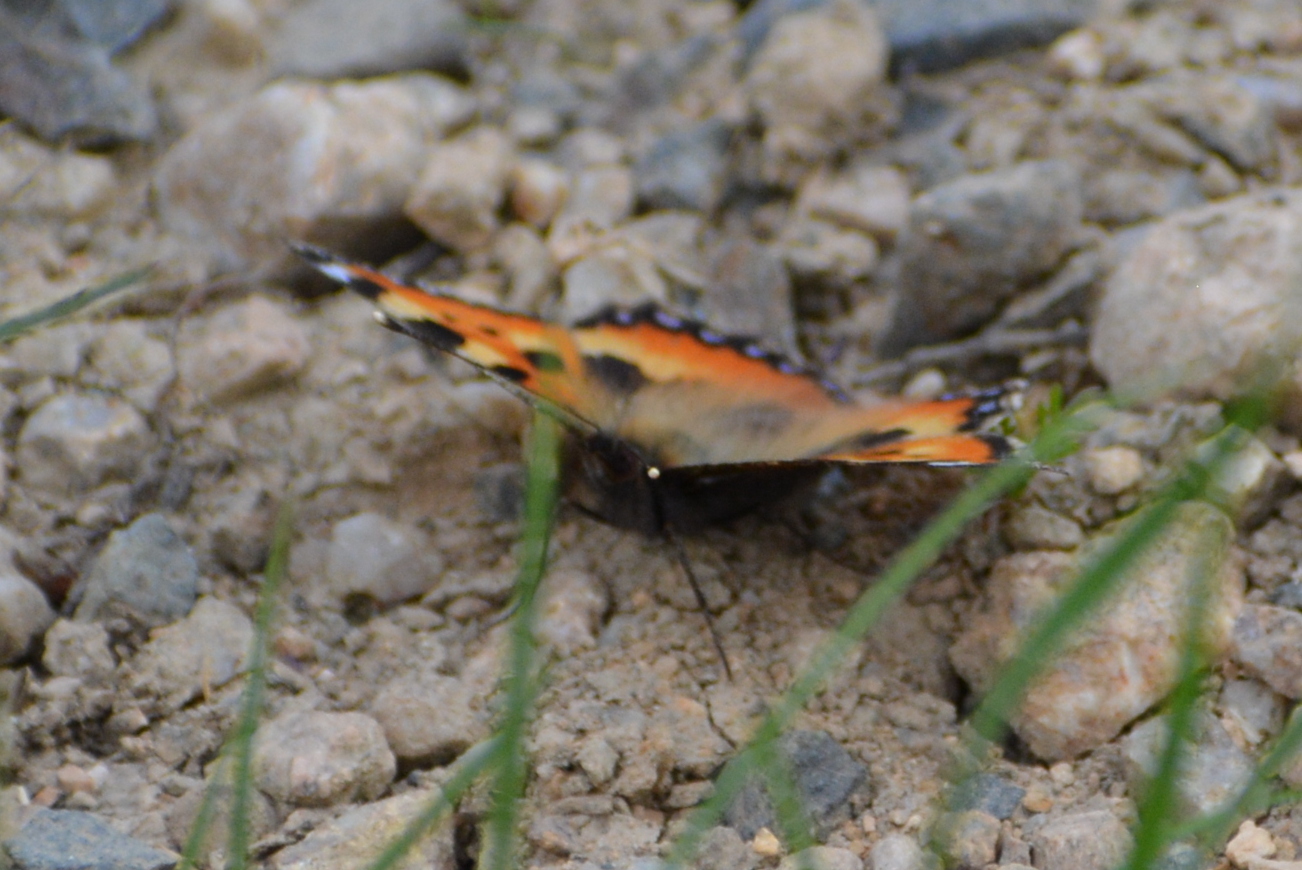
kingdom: Animalia
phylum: Arthropoda
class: Insecta
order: Lepidoptera
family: Nymphalidae
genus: Aglais
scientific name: Aglais urticae
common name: Small tortoiseshell
